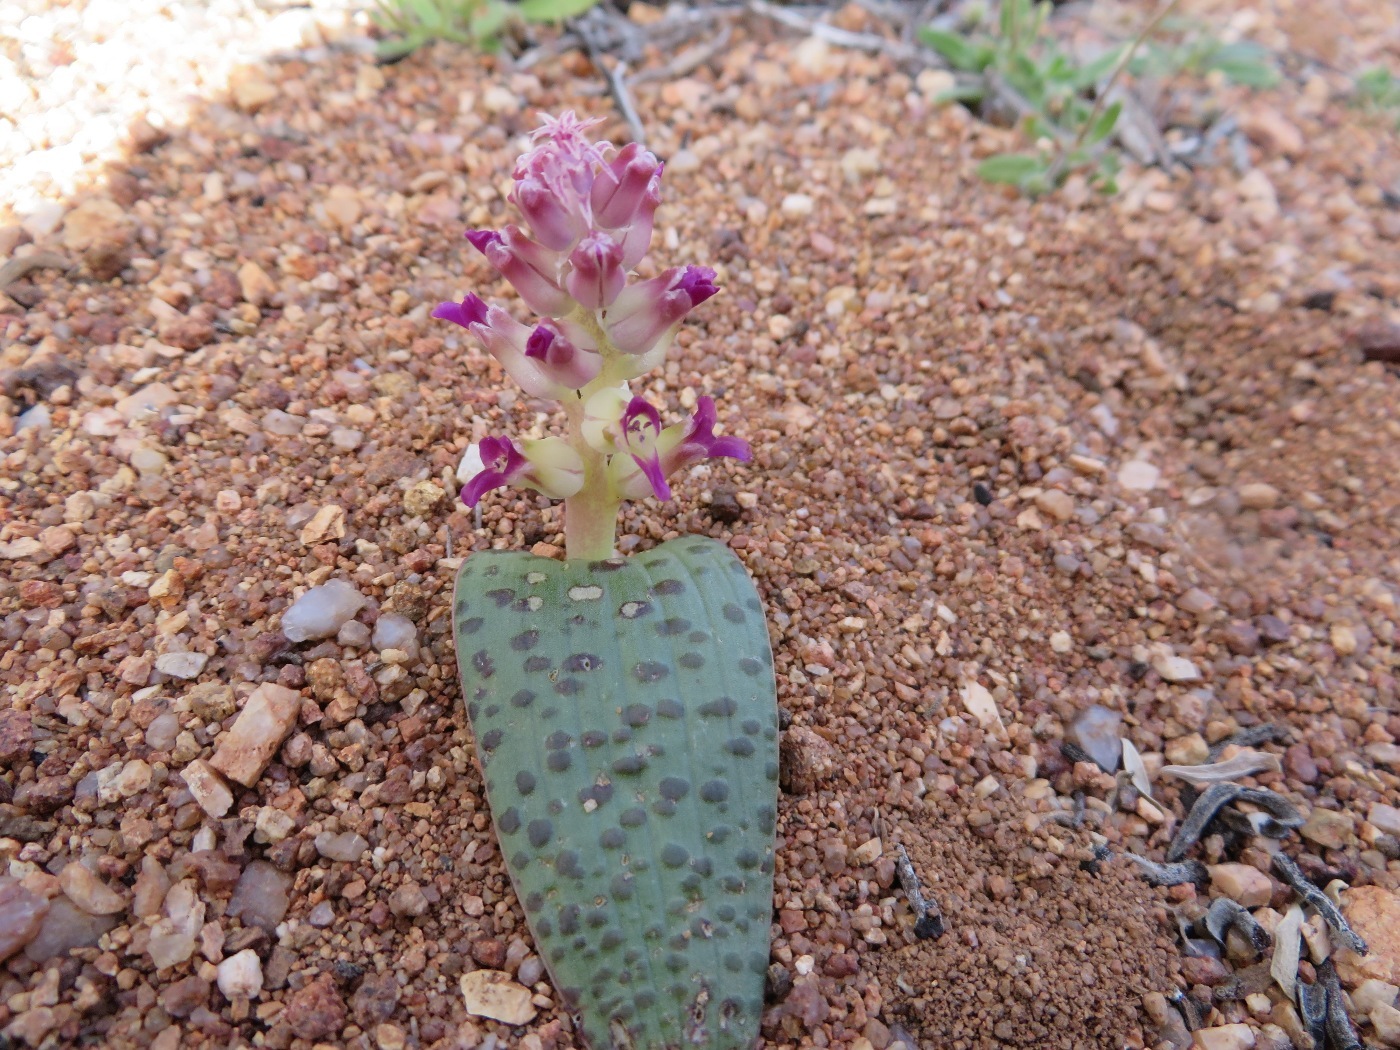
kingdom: Plantae
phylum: Tracheophyta
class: Liliopsida
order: Asparagales
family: Asparagaceae
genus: Lachenalia
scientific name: Lachenalia carnosa
